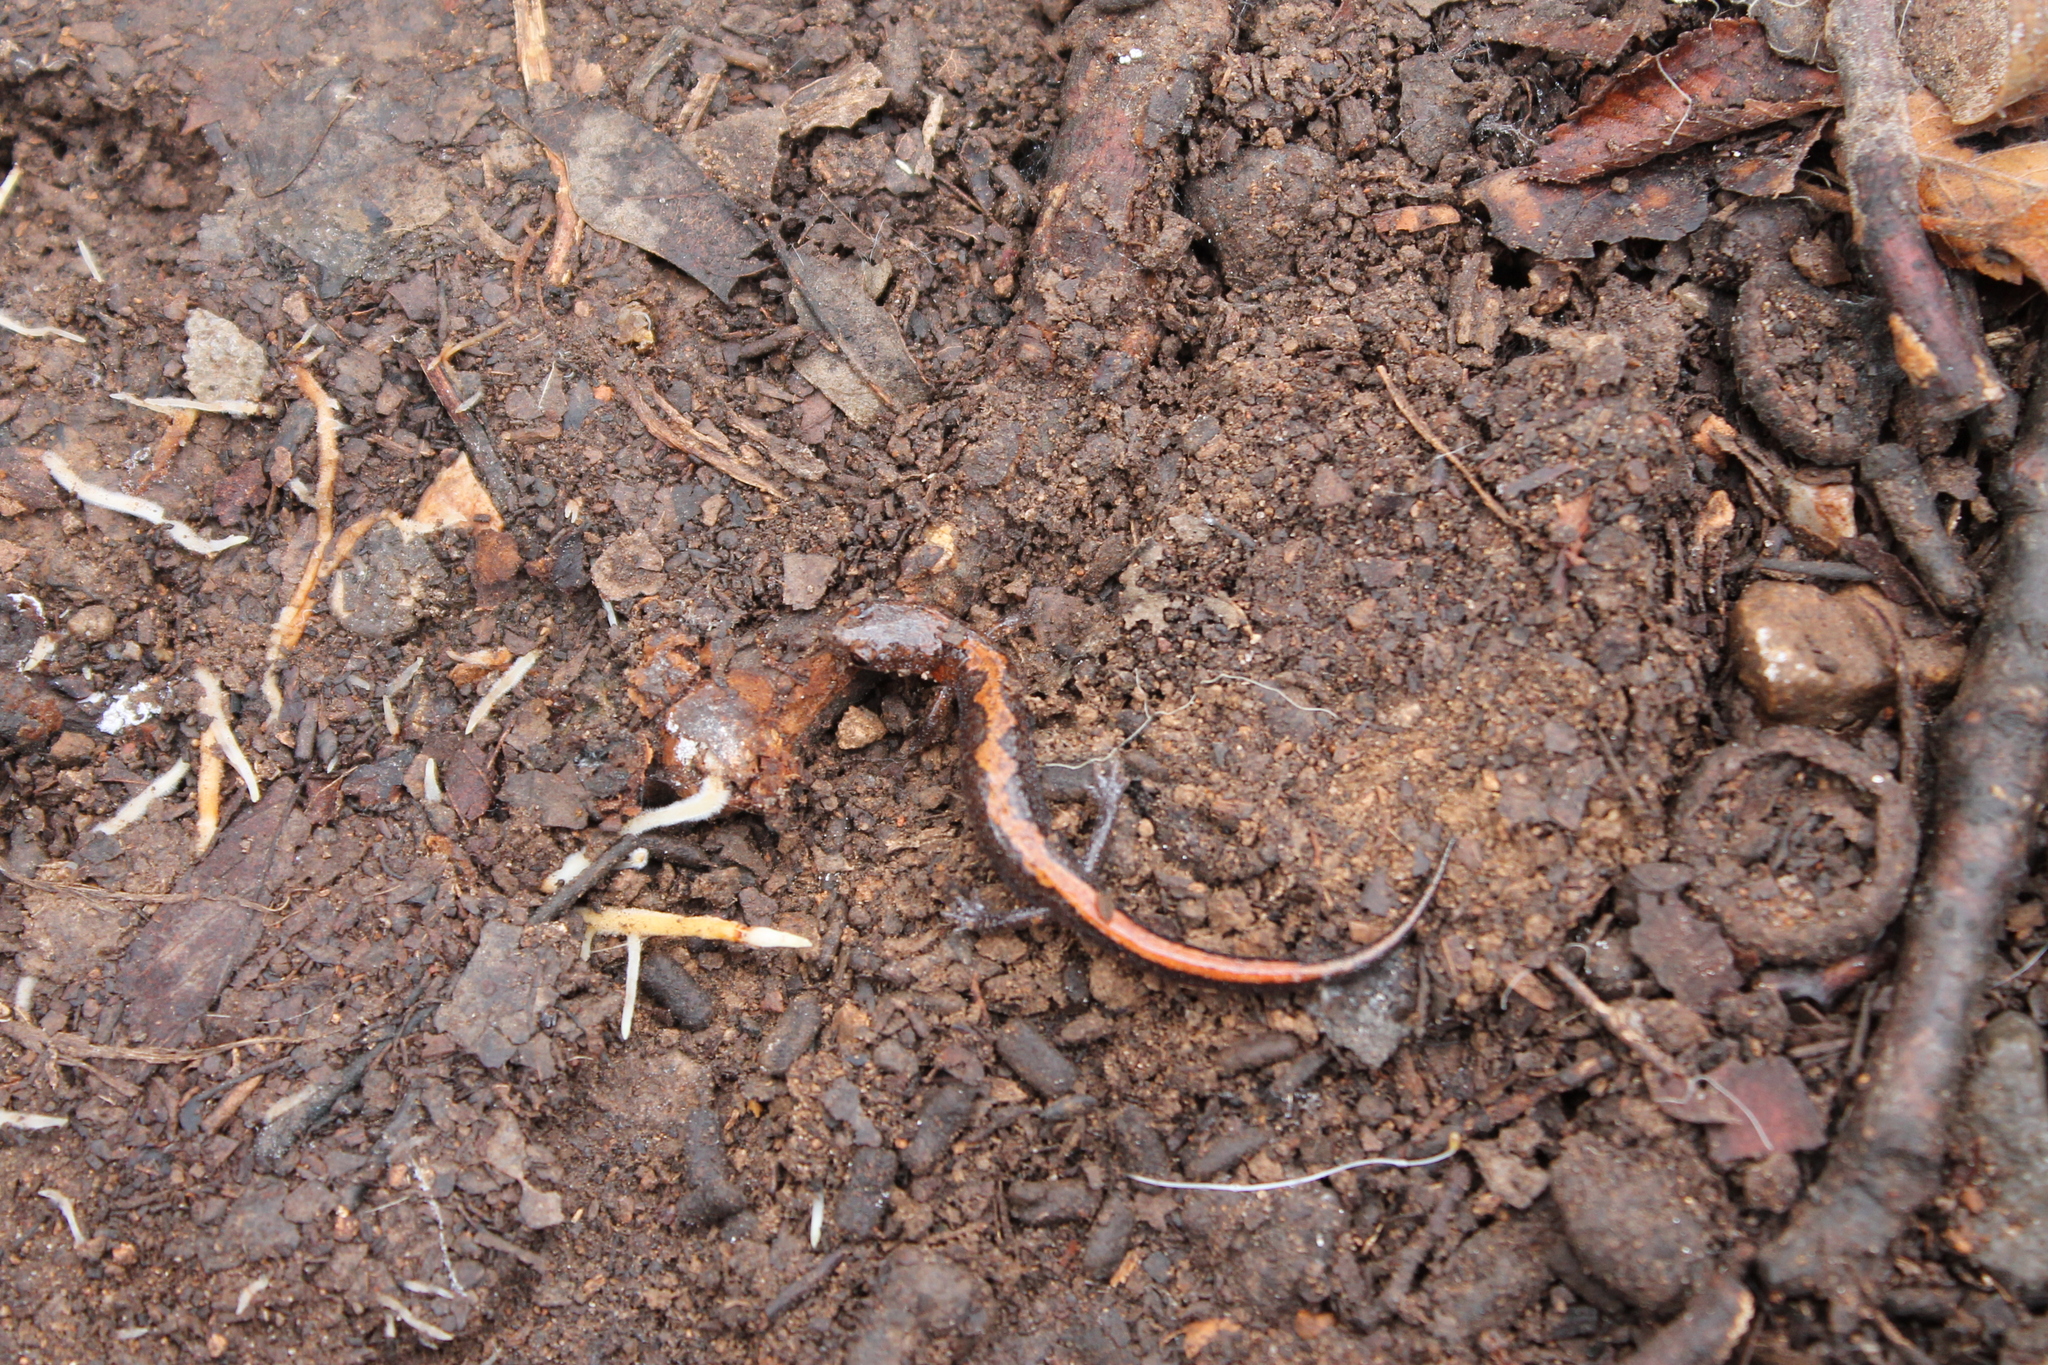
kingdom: Animalia
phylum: Chordata
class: Amphibia
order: Caudata
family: Plethodontidae
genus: Plethodon
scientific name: Plethodon dorsalis
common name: Northern zigzag salamander
